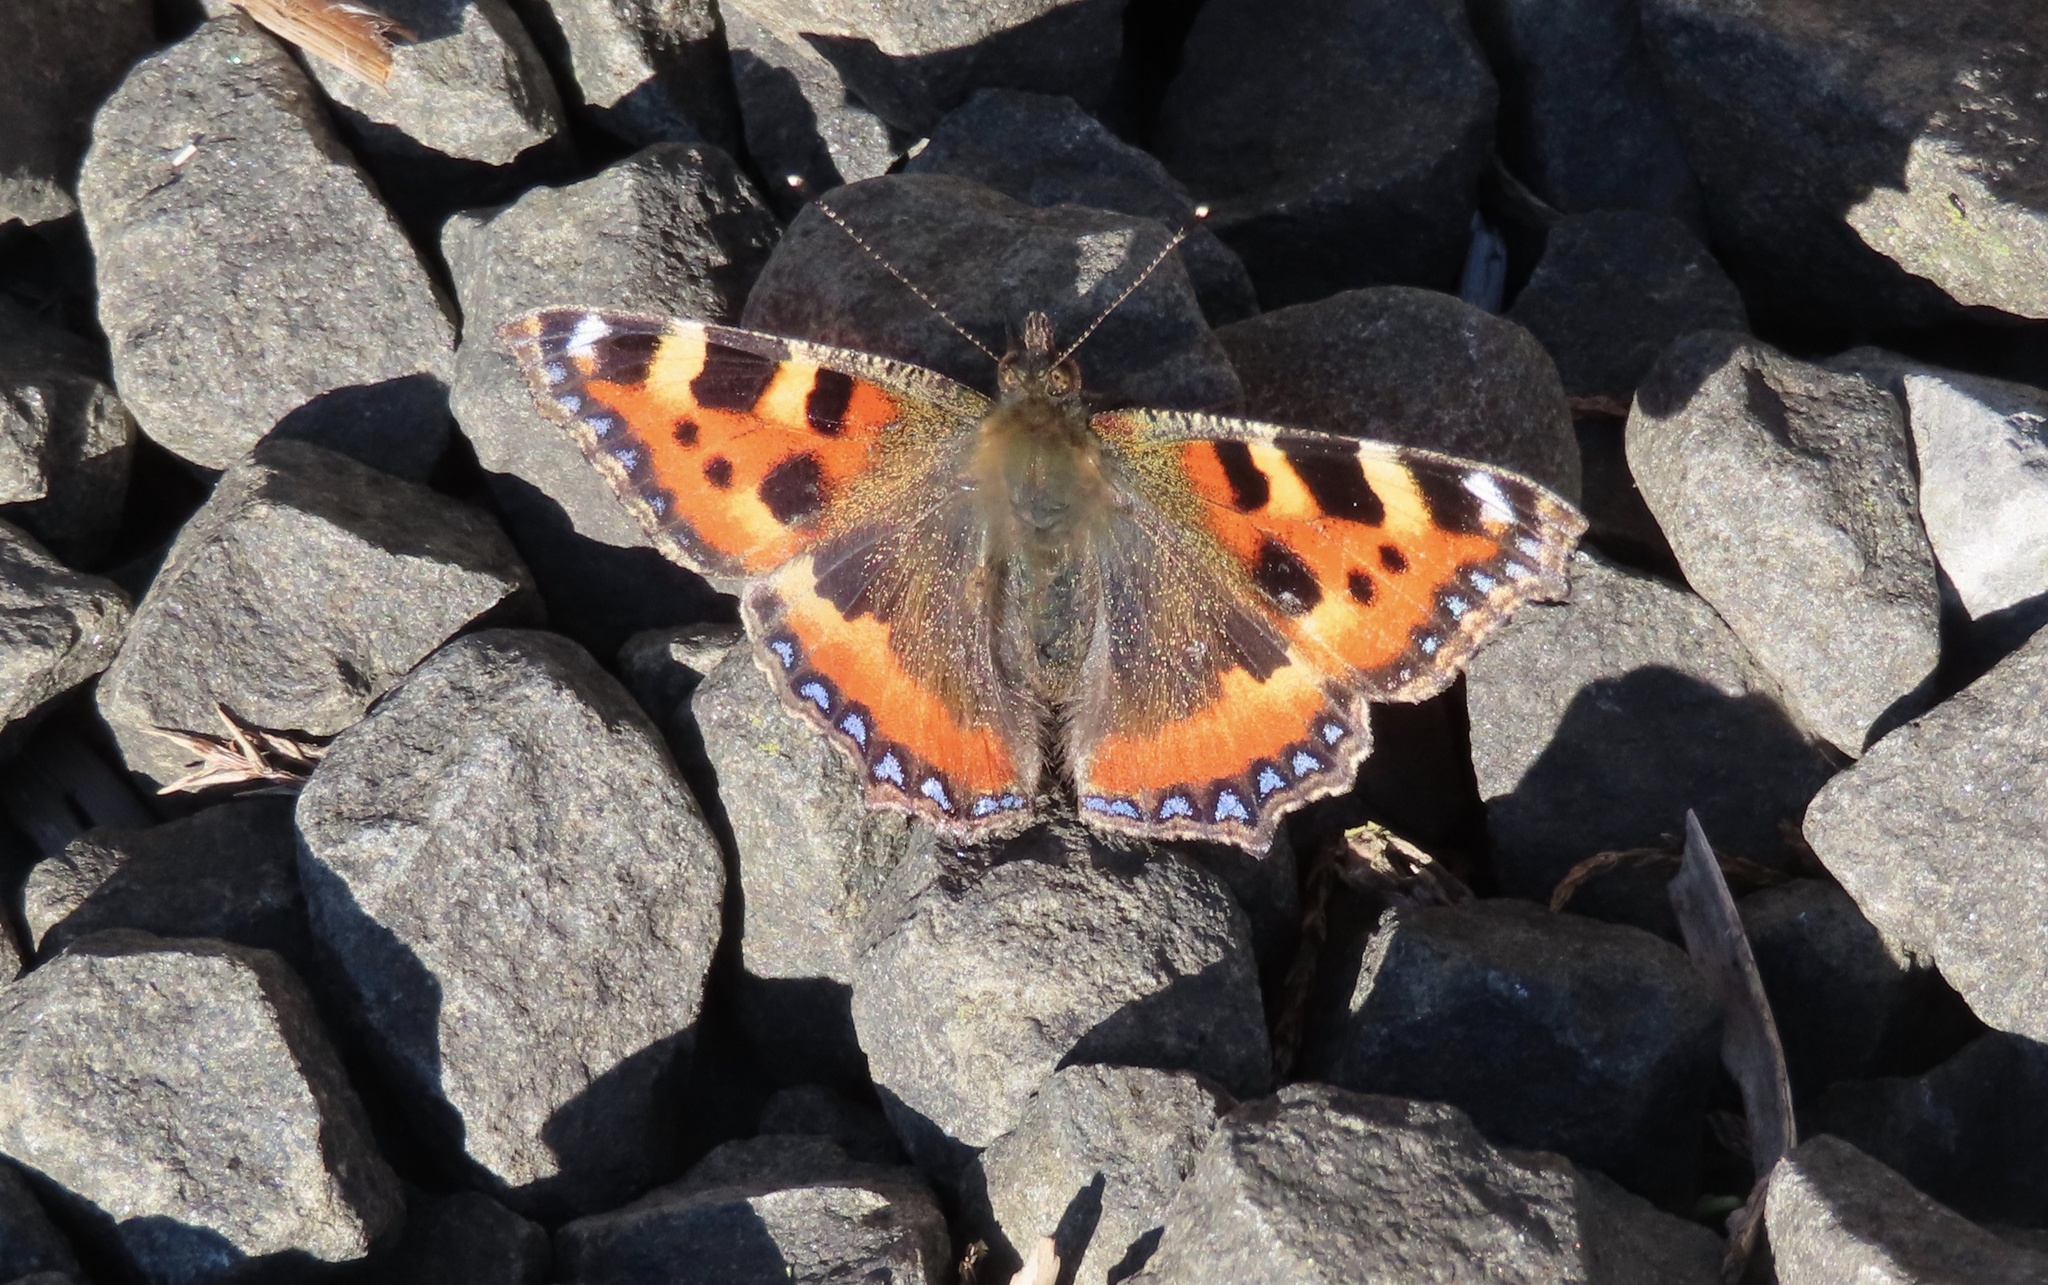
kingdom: Animalia
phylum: Arthropoda
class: Insecta
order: Lepidoptera
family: Nymphalidae
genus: Aglais
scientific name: Aglais urticae
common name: Small tortoiseshell
